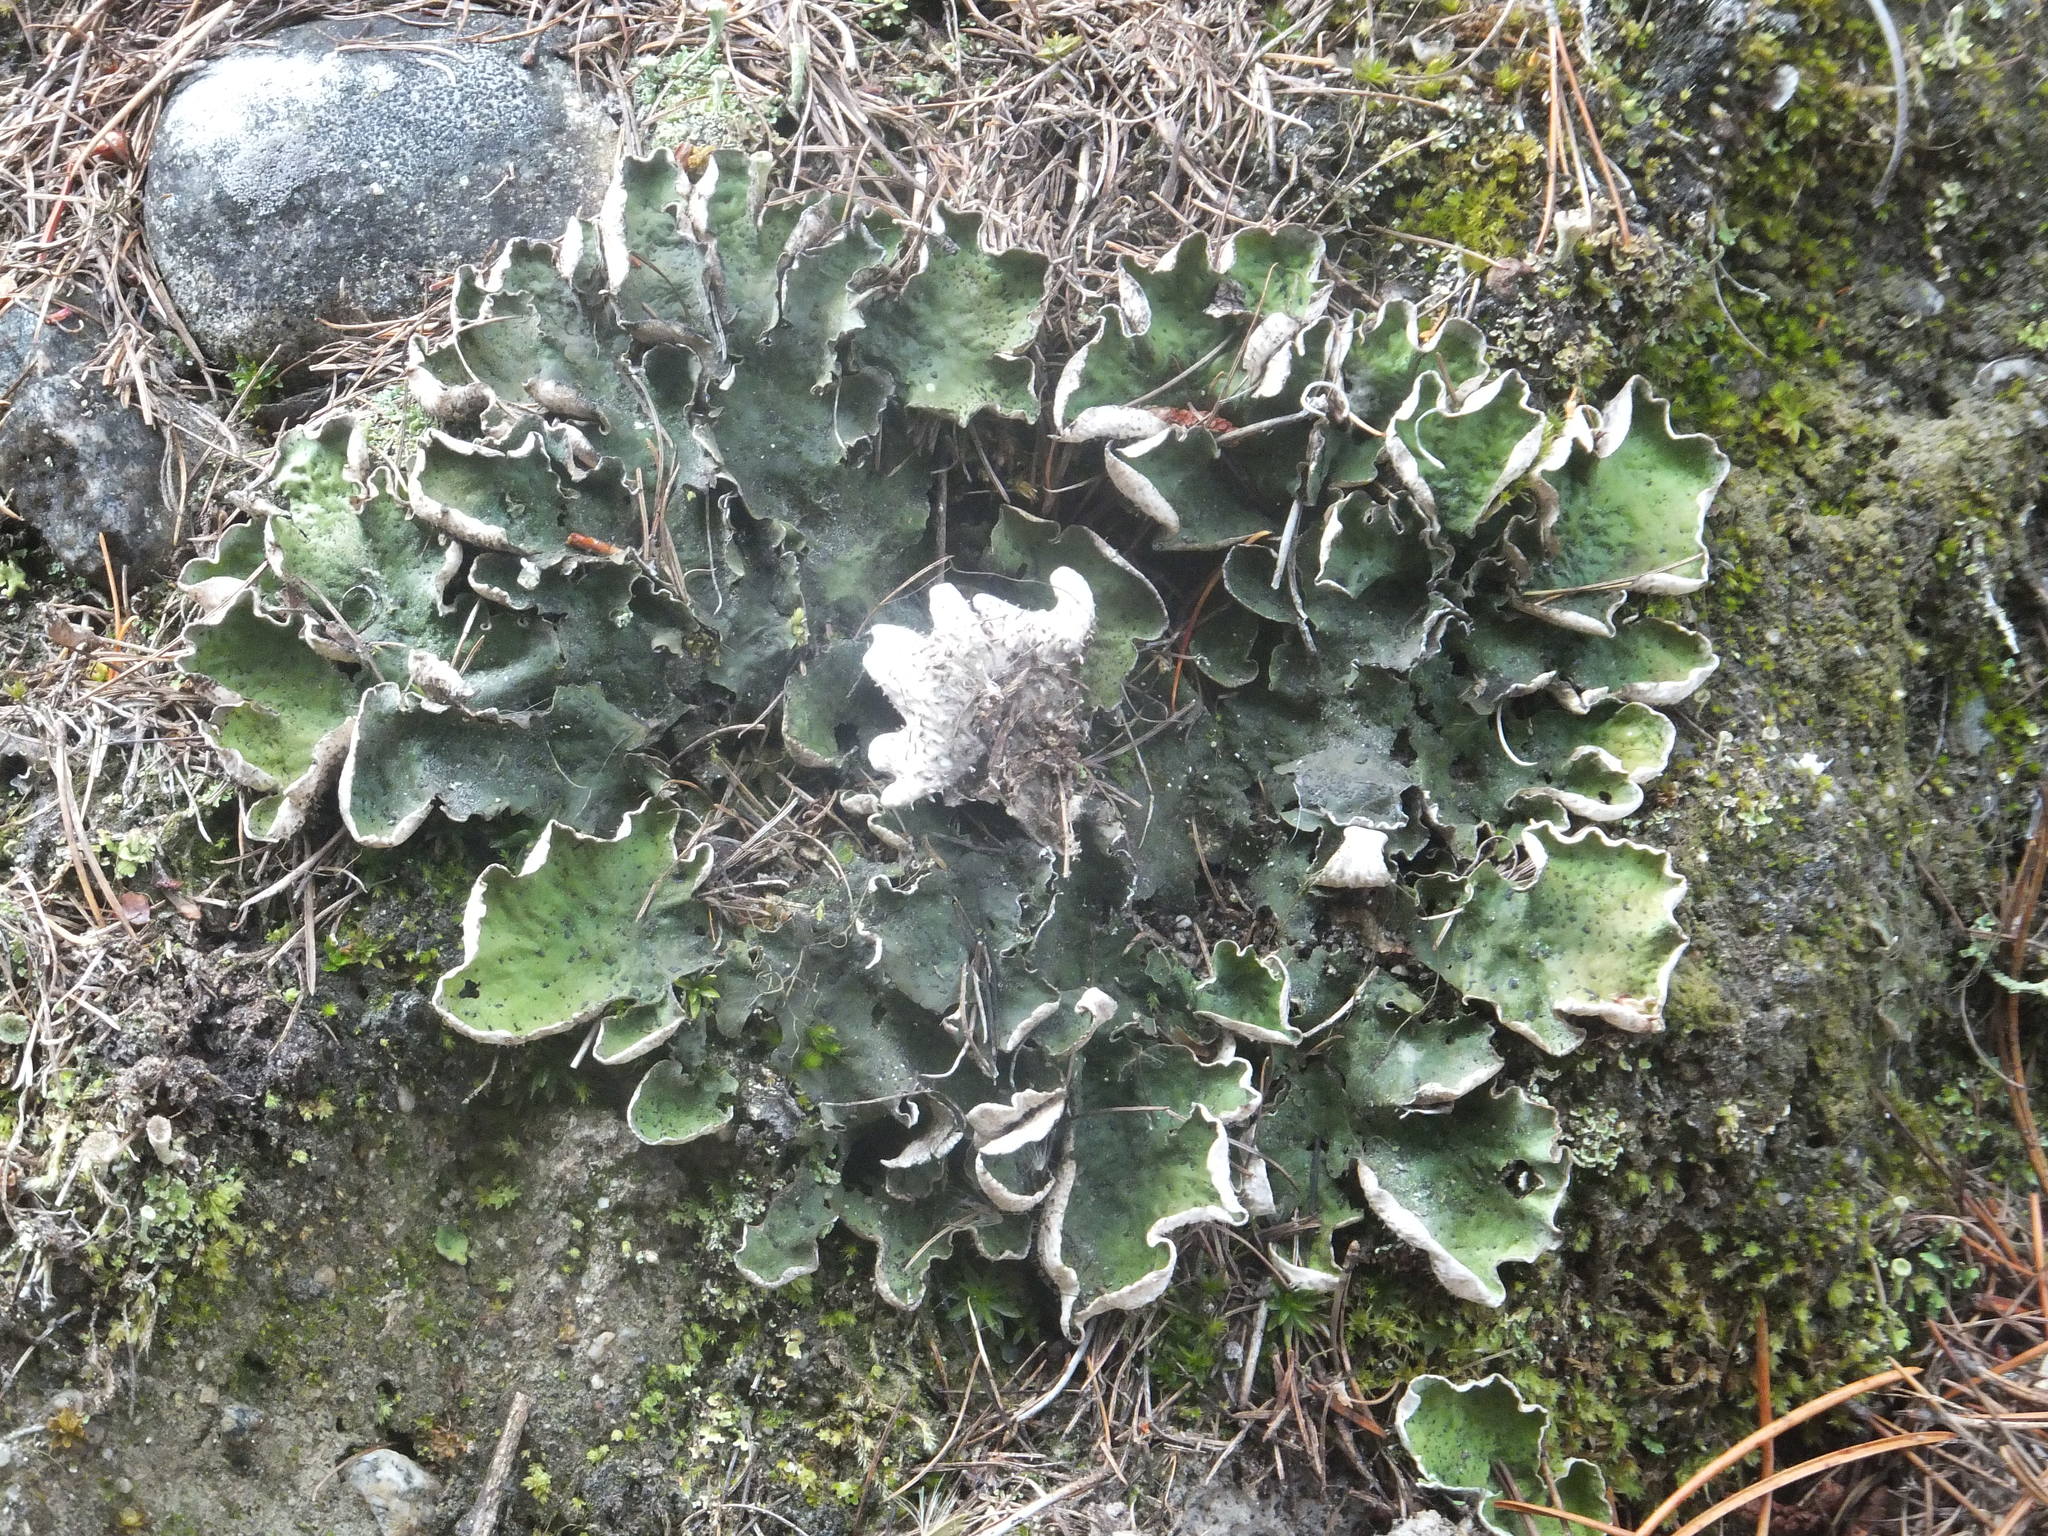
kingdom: Fungi
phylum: Ascomycota
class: Lecanoromycetes
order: Peltigerales
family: Peltigeraceae
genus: Peltigera
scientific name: Peltigera aphthosa
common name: Common freckle pelt lichen
